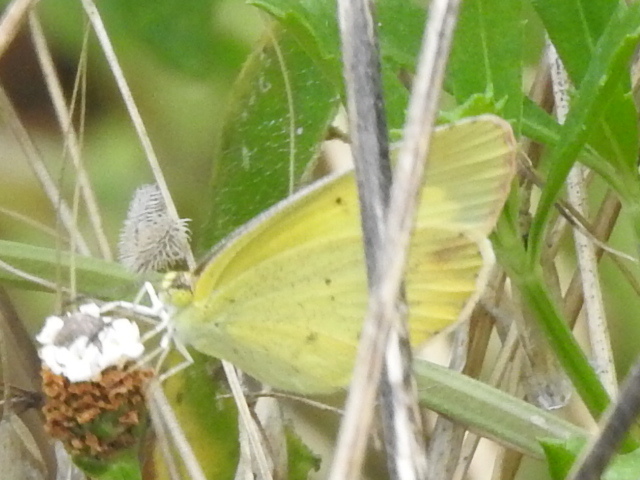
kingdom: Animalia
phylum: Arthropoda
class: Insecta
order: Lepidoptera
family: Pieridae
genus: Pyrisitia
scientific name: Pyrisitia lisa
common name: Little yellow
